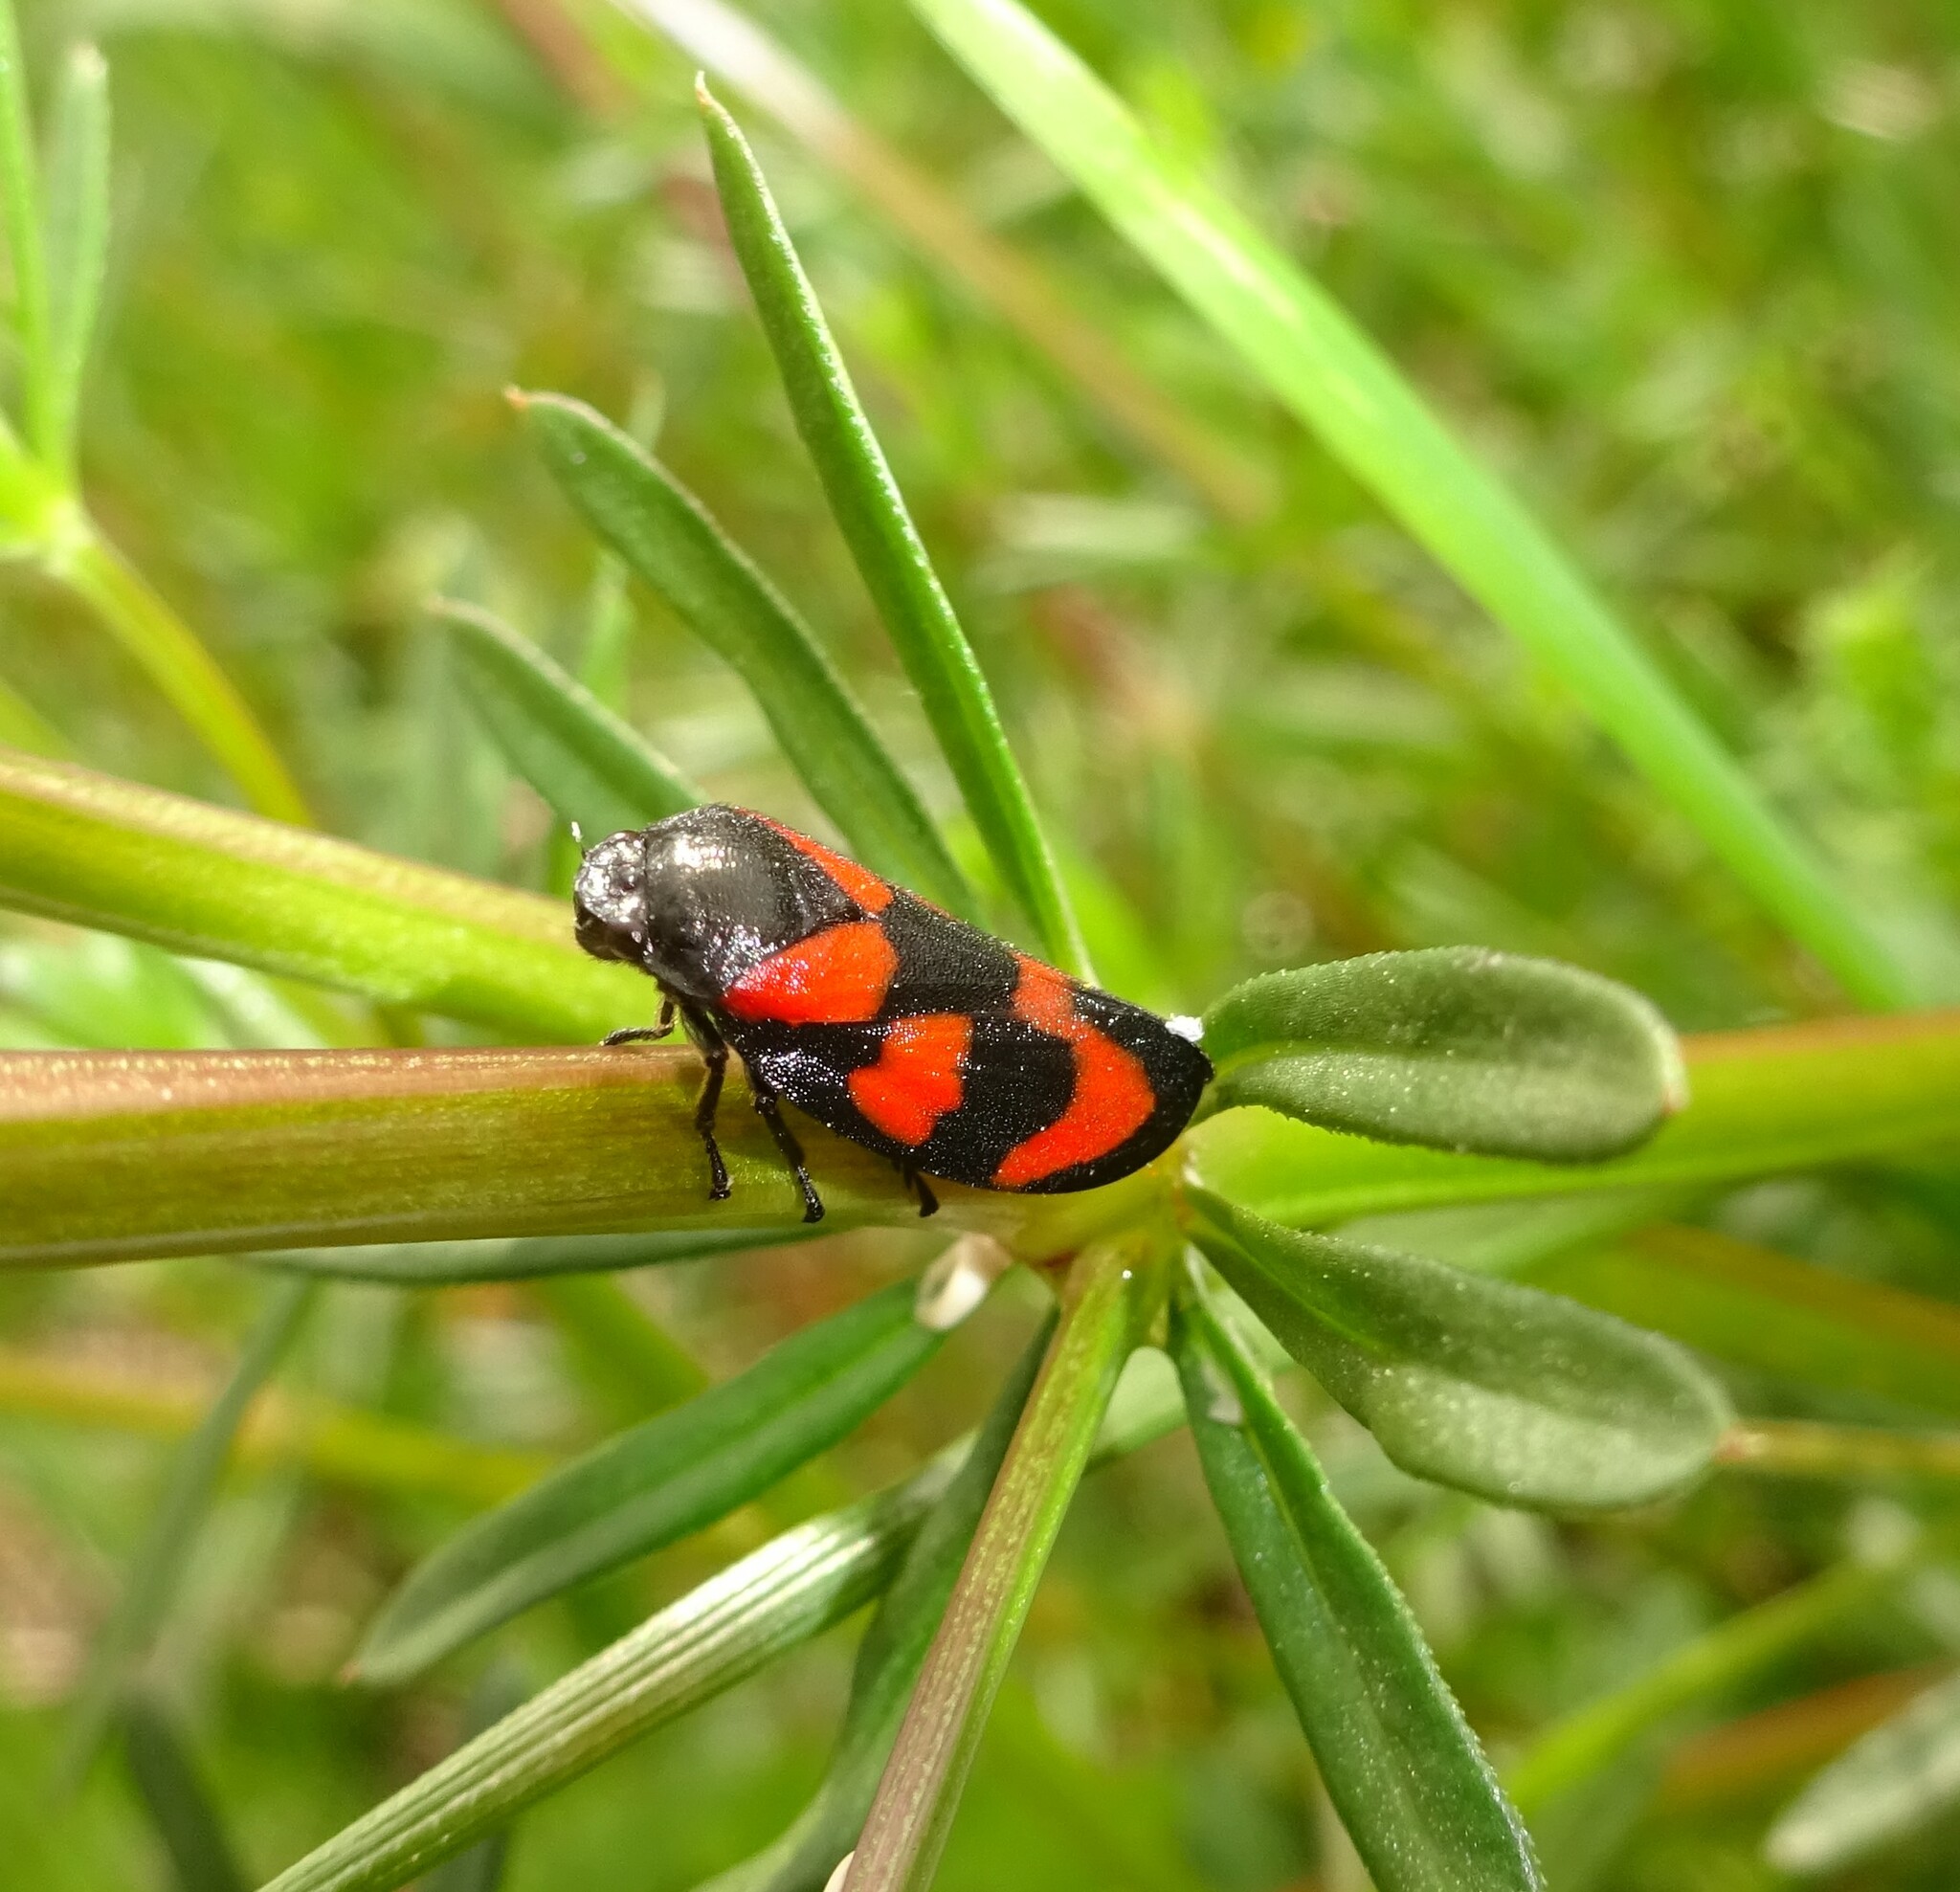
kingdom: Animalia
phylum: Arthropoda
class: Insecta
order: Hemiptera
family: Cercopidae
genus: Cercopis
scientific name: Cercopis vulnerata
